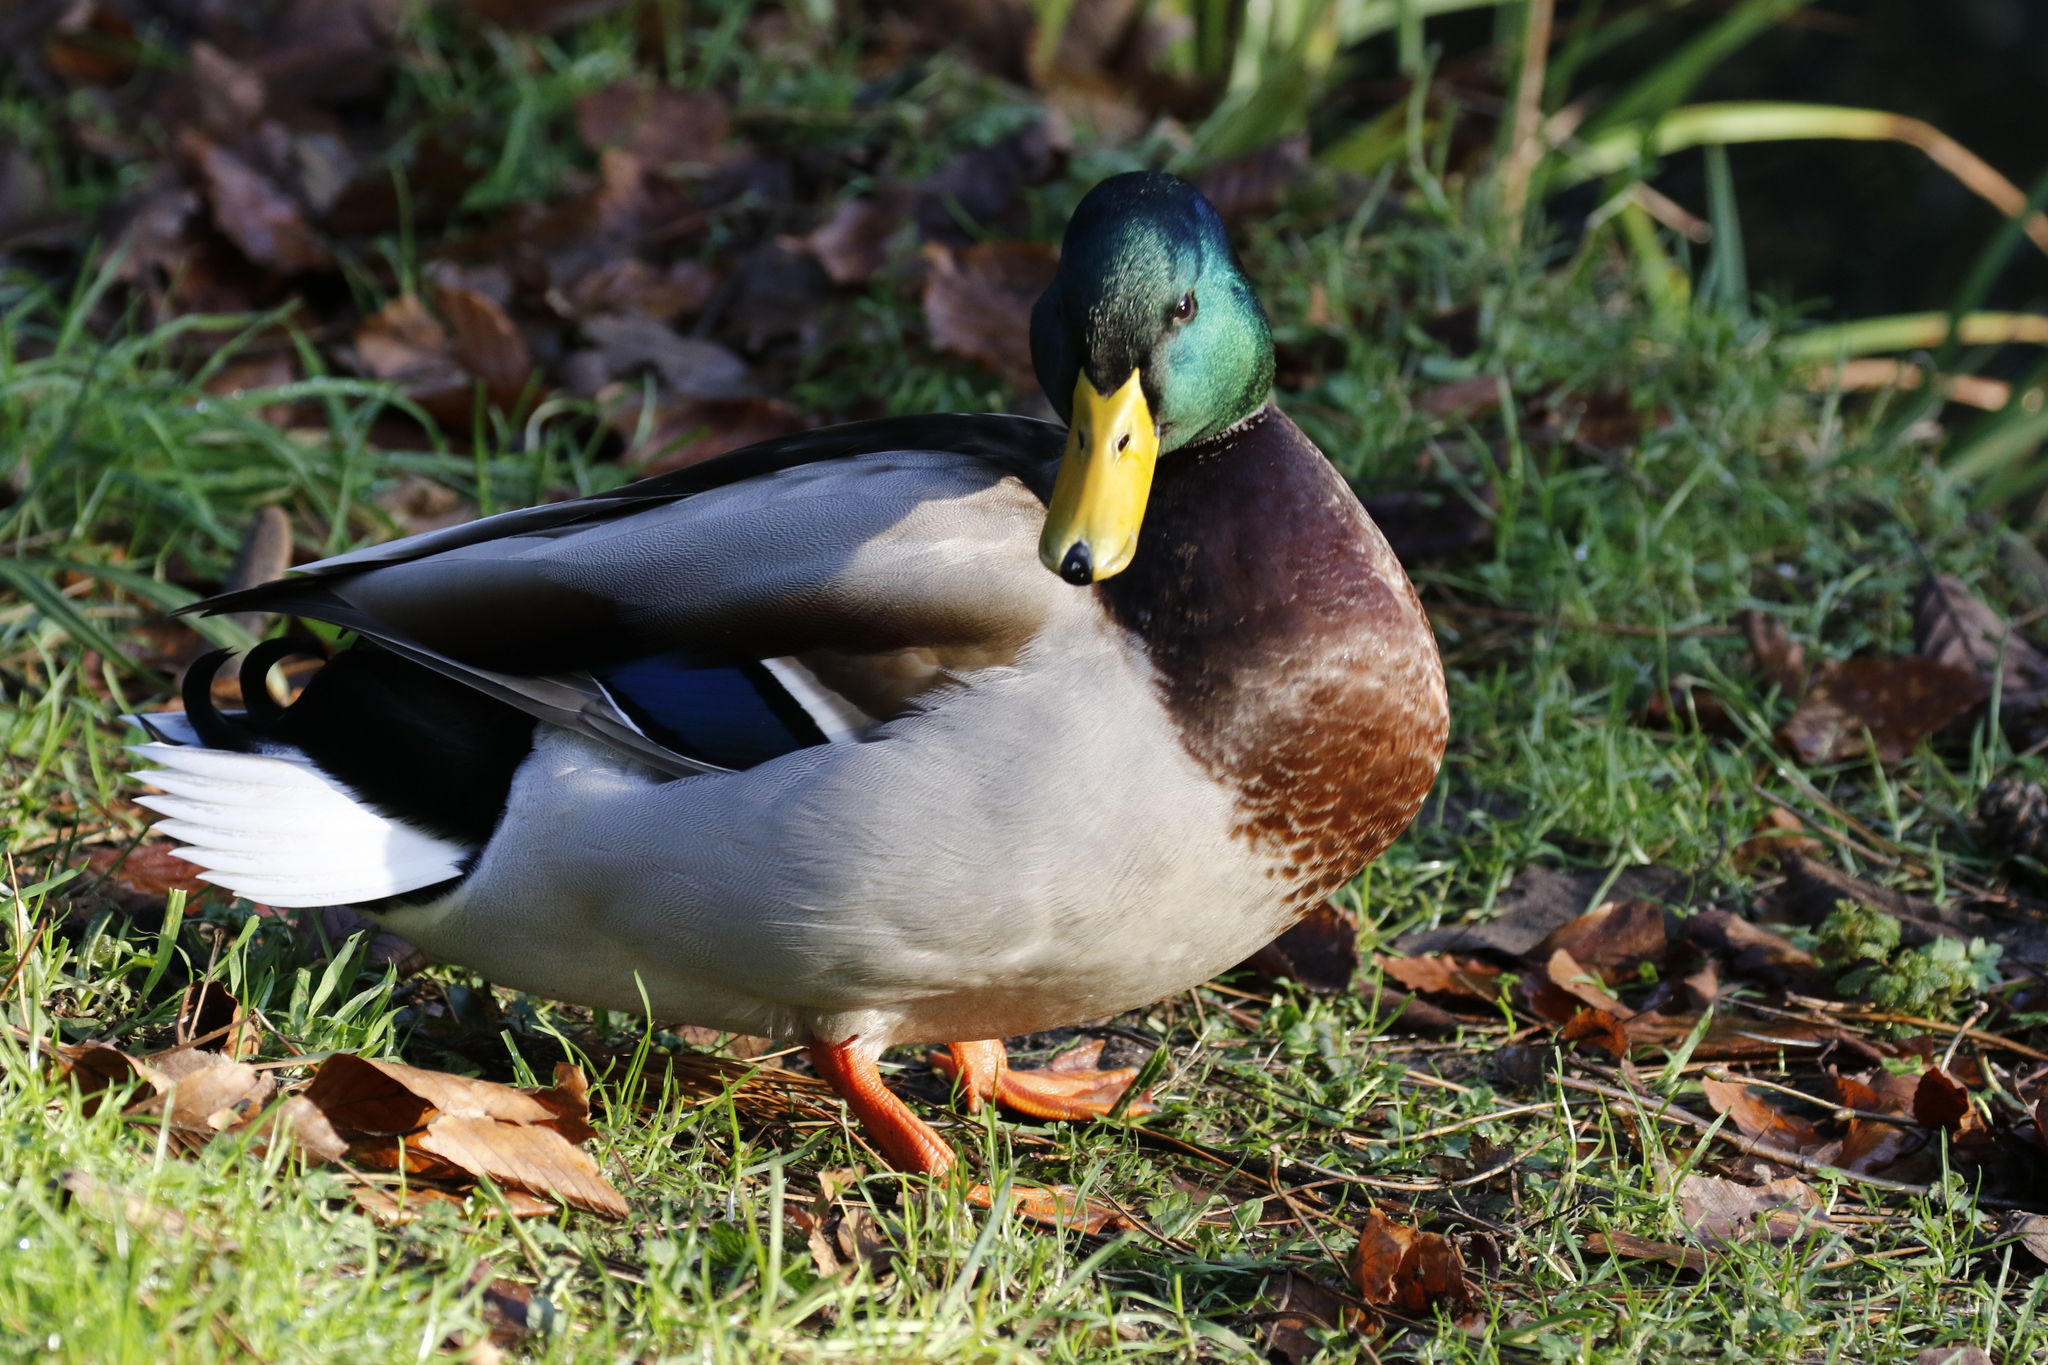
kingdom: Animalia
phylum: Chordata
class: Aves
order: Anseriformes
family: Anatidae
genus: Anas
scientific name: Anas platyrhynchos
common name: Mallard
